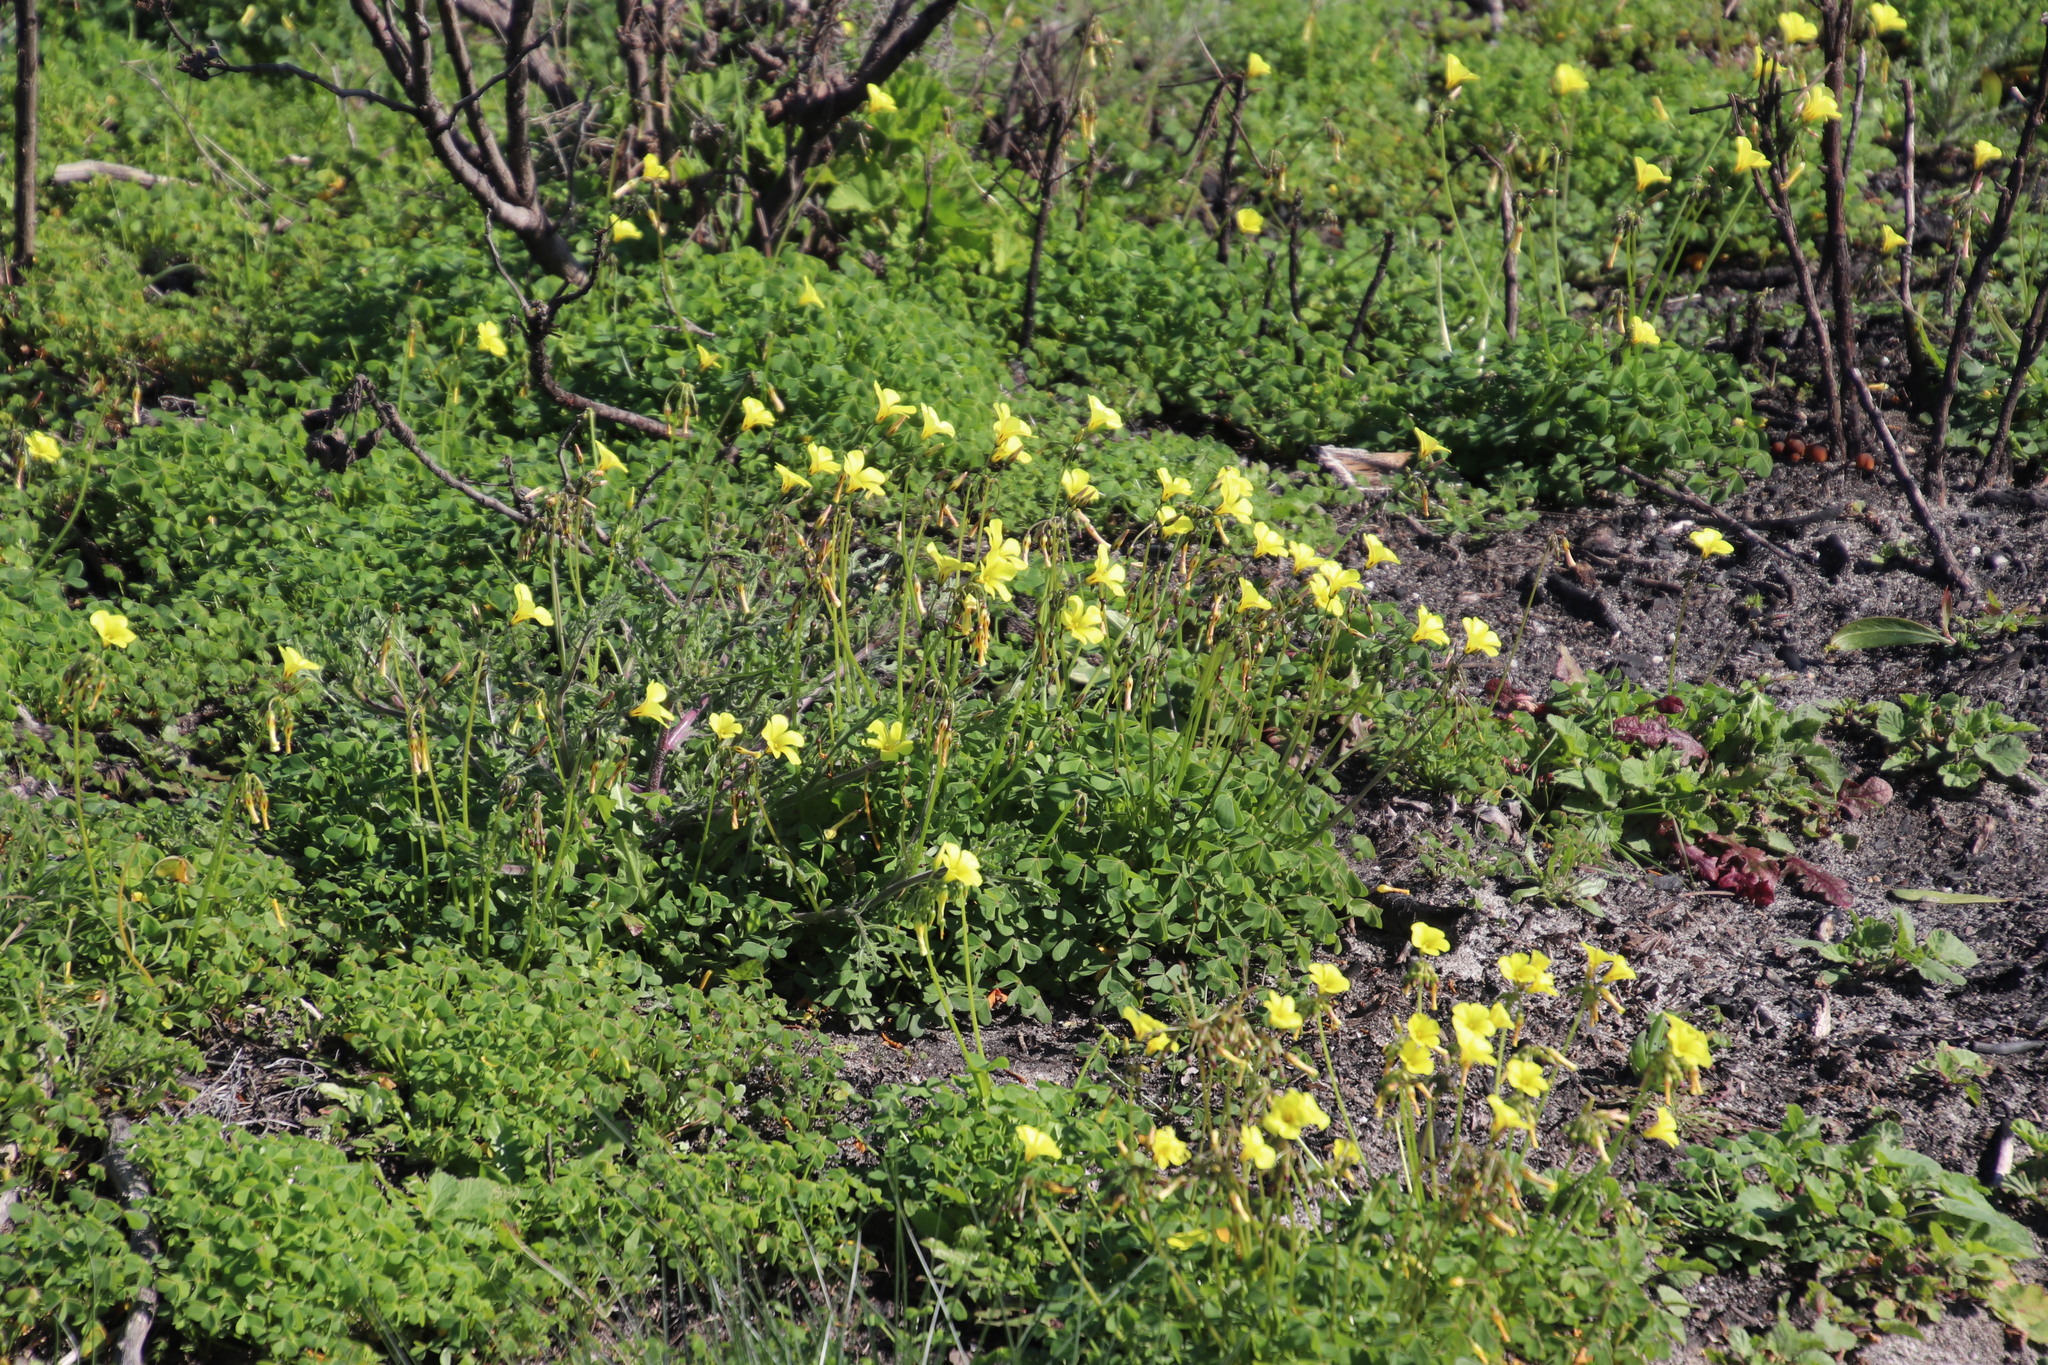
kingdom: Plantae
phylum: Tracheophyta
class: Magnoliopsida
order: Oxalidales
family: Oxalidaceae
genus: Oxalis
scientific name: Oxalis pes-caprae
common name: Bermuda-buttercup
